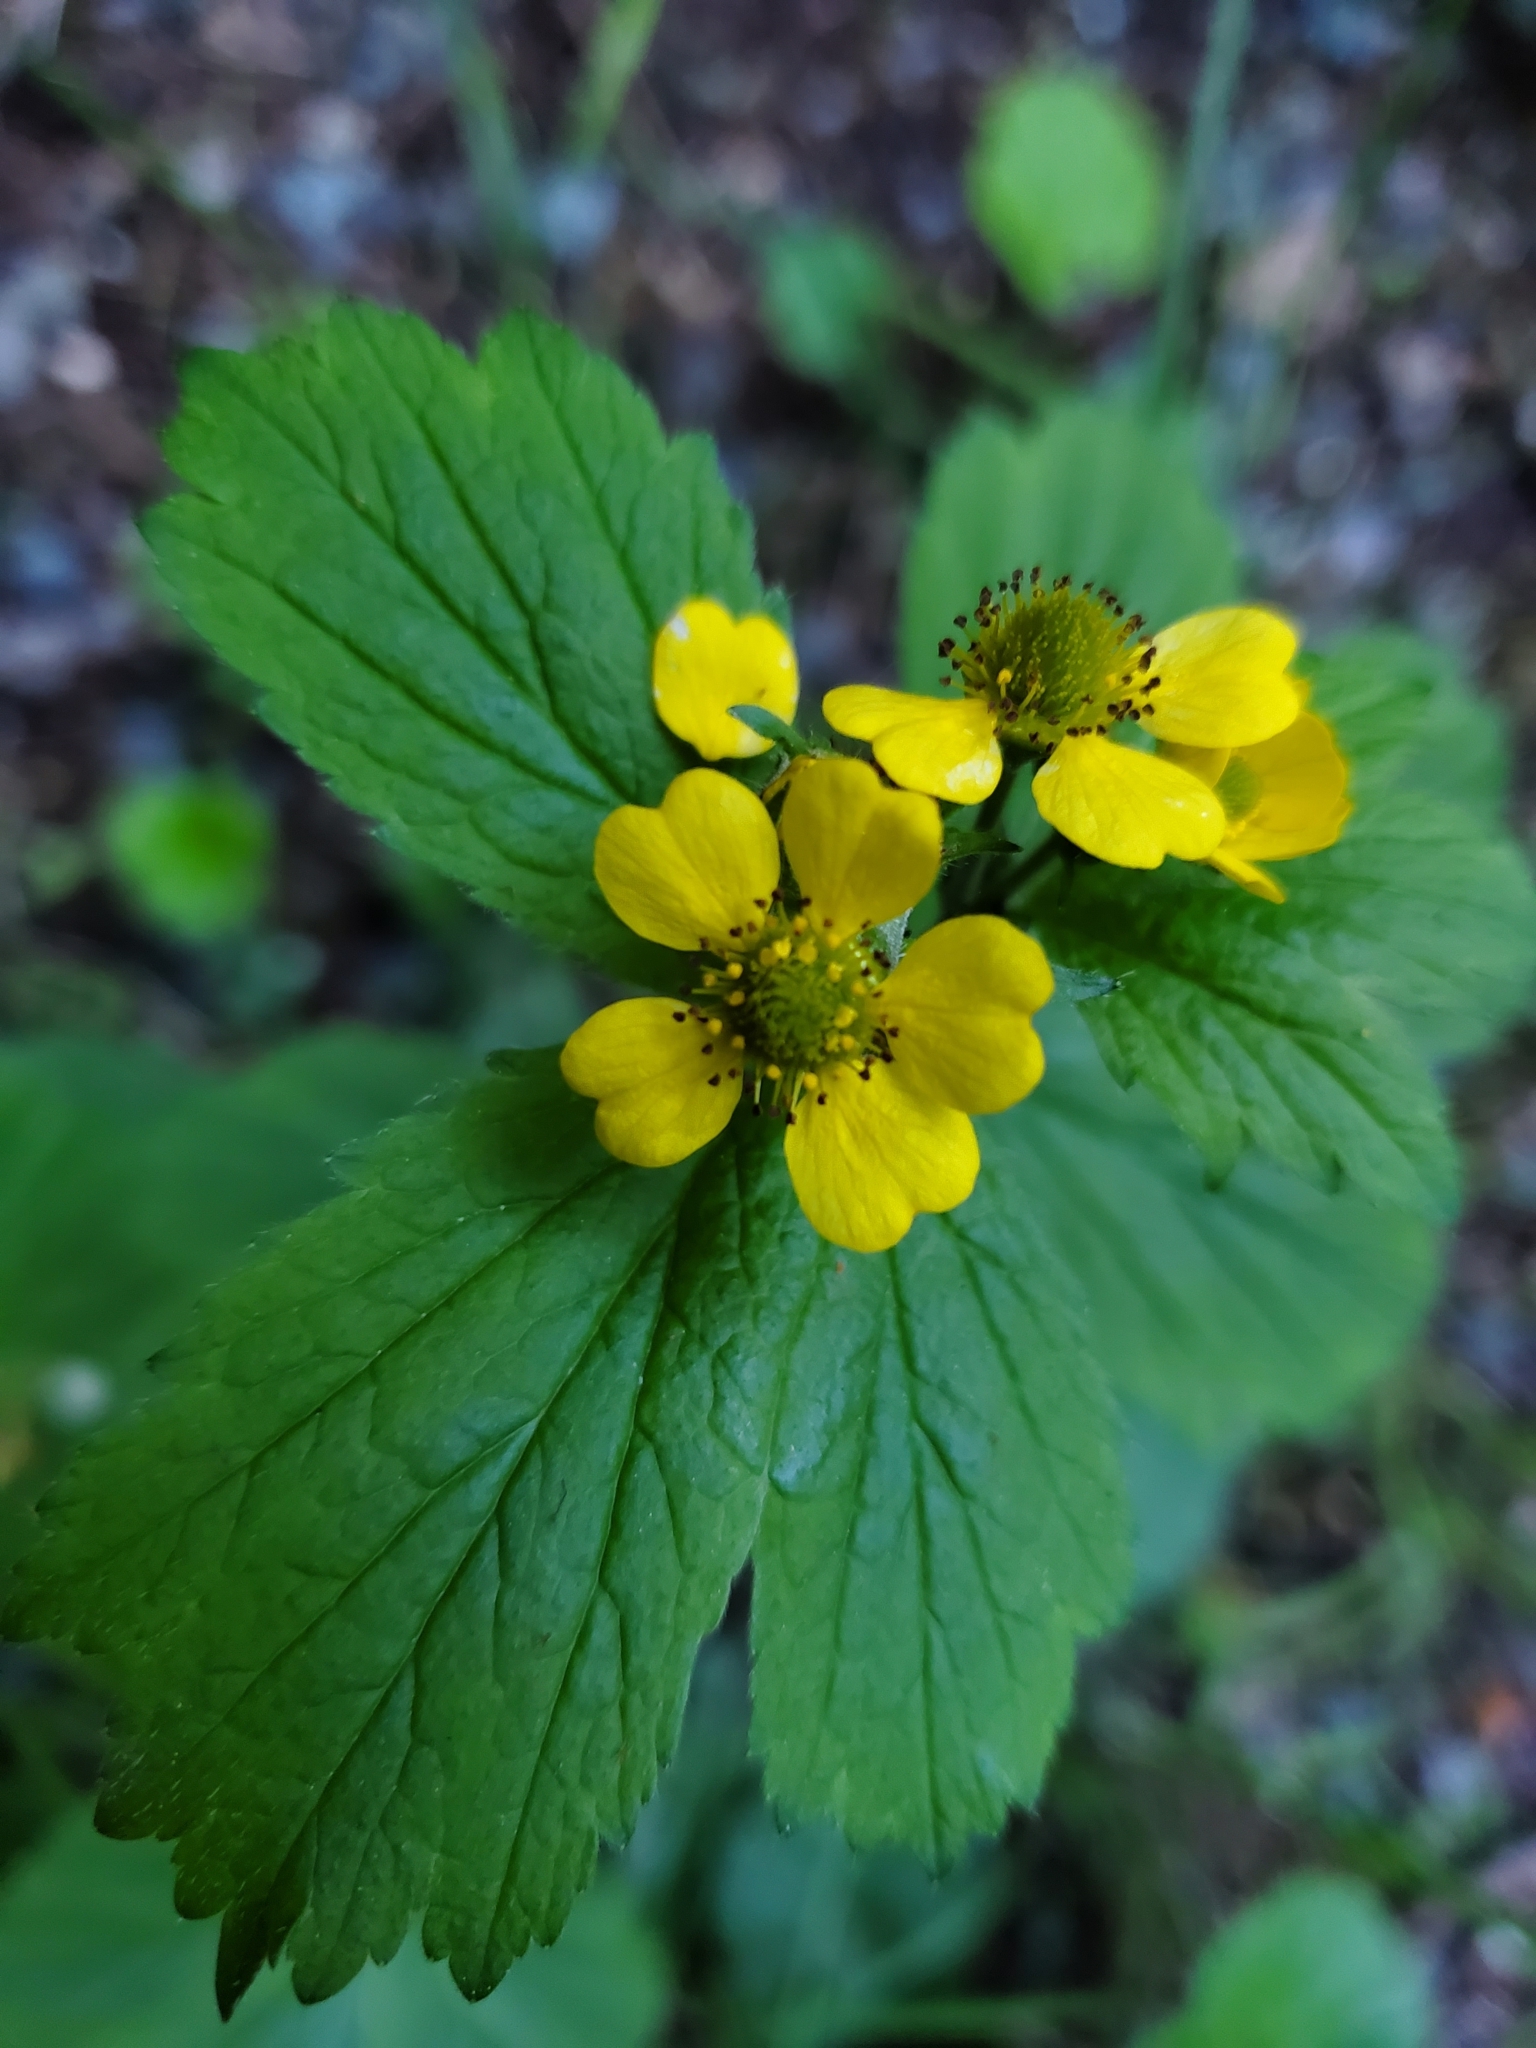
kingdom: Plantae
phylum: Tracheophyta
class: Magnoliopsida
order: Rosales
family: Rosaceae
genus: Geum
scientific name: Geum macrophyllum
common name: Large-leaved avens
